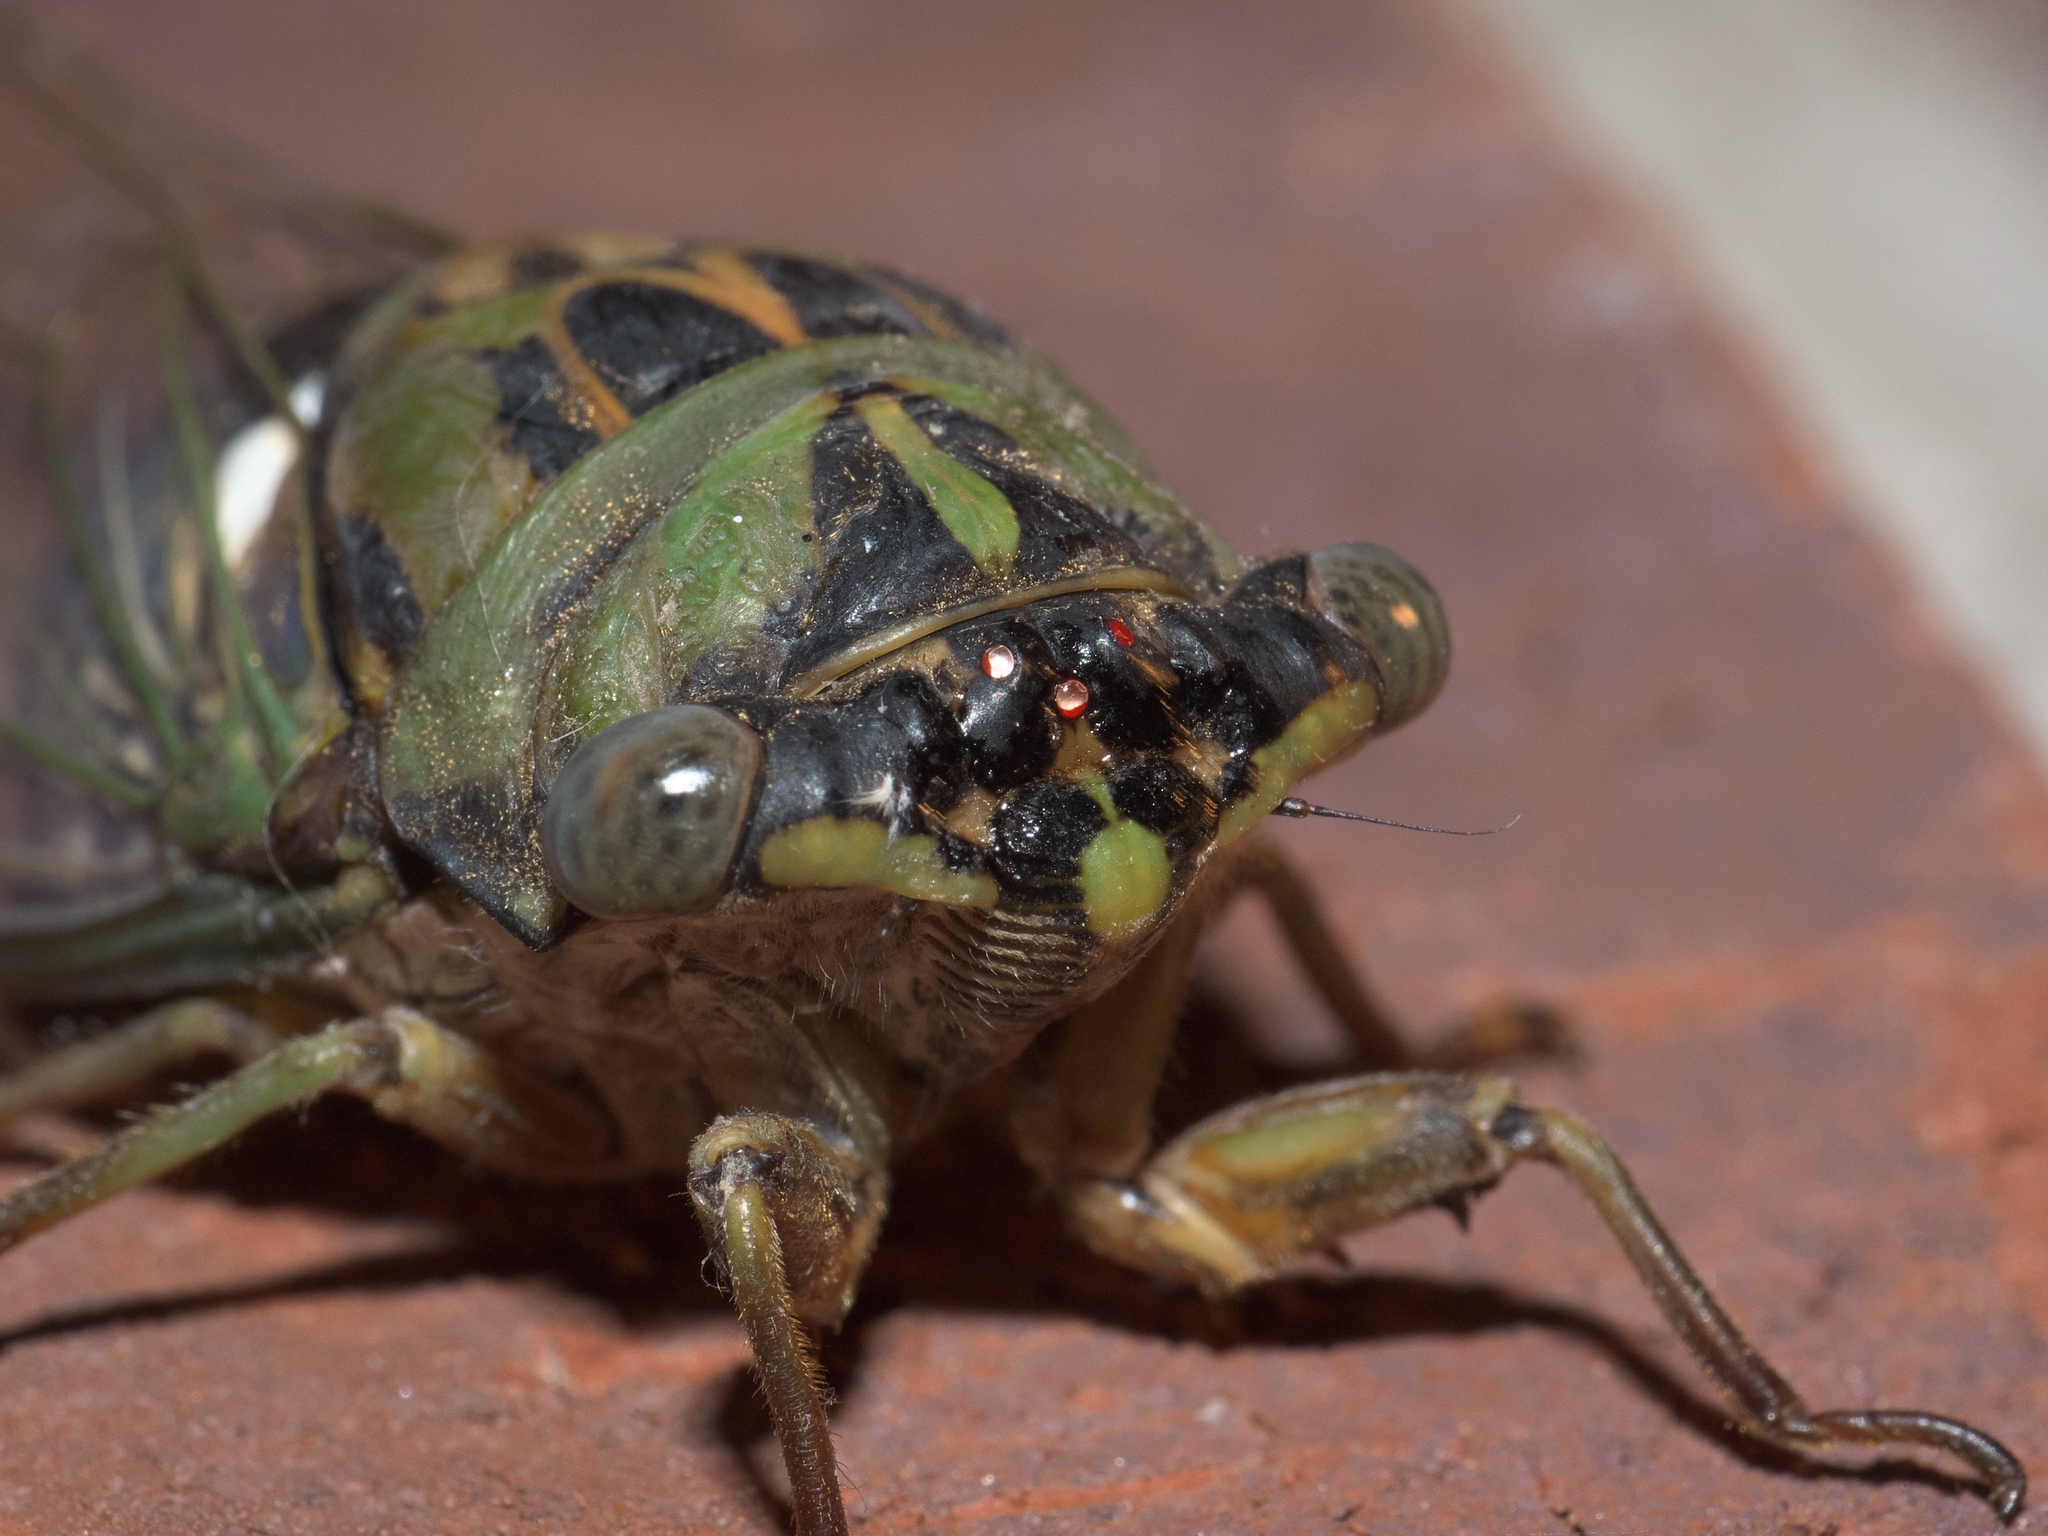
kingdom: Animalia
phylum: Arthropoda
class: Insecta
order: Hemiptera
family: Cicadidae
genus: Neotibicen
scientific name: Neotibicen pruinosus
